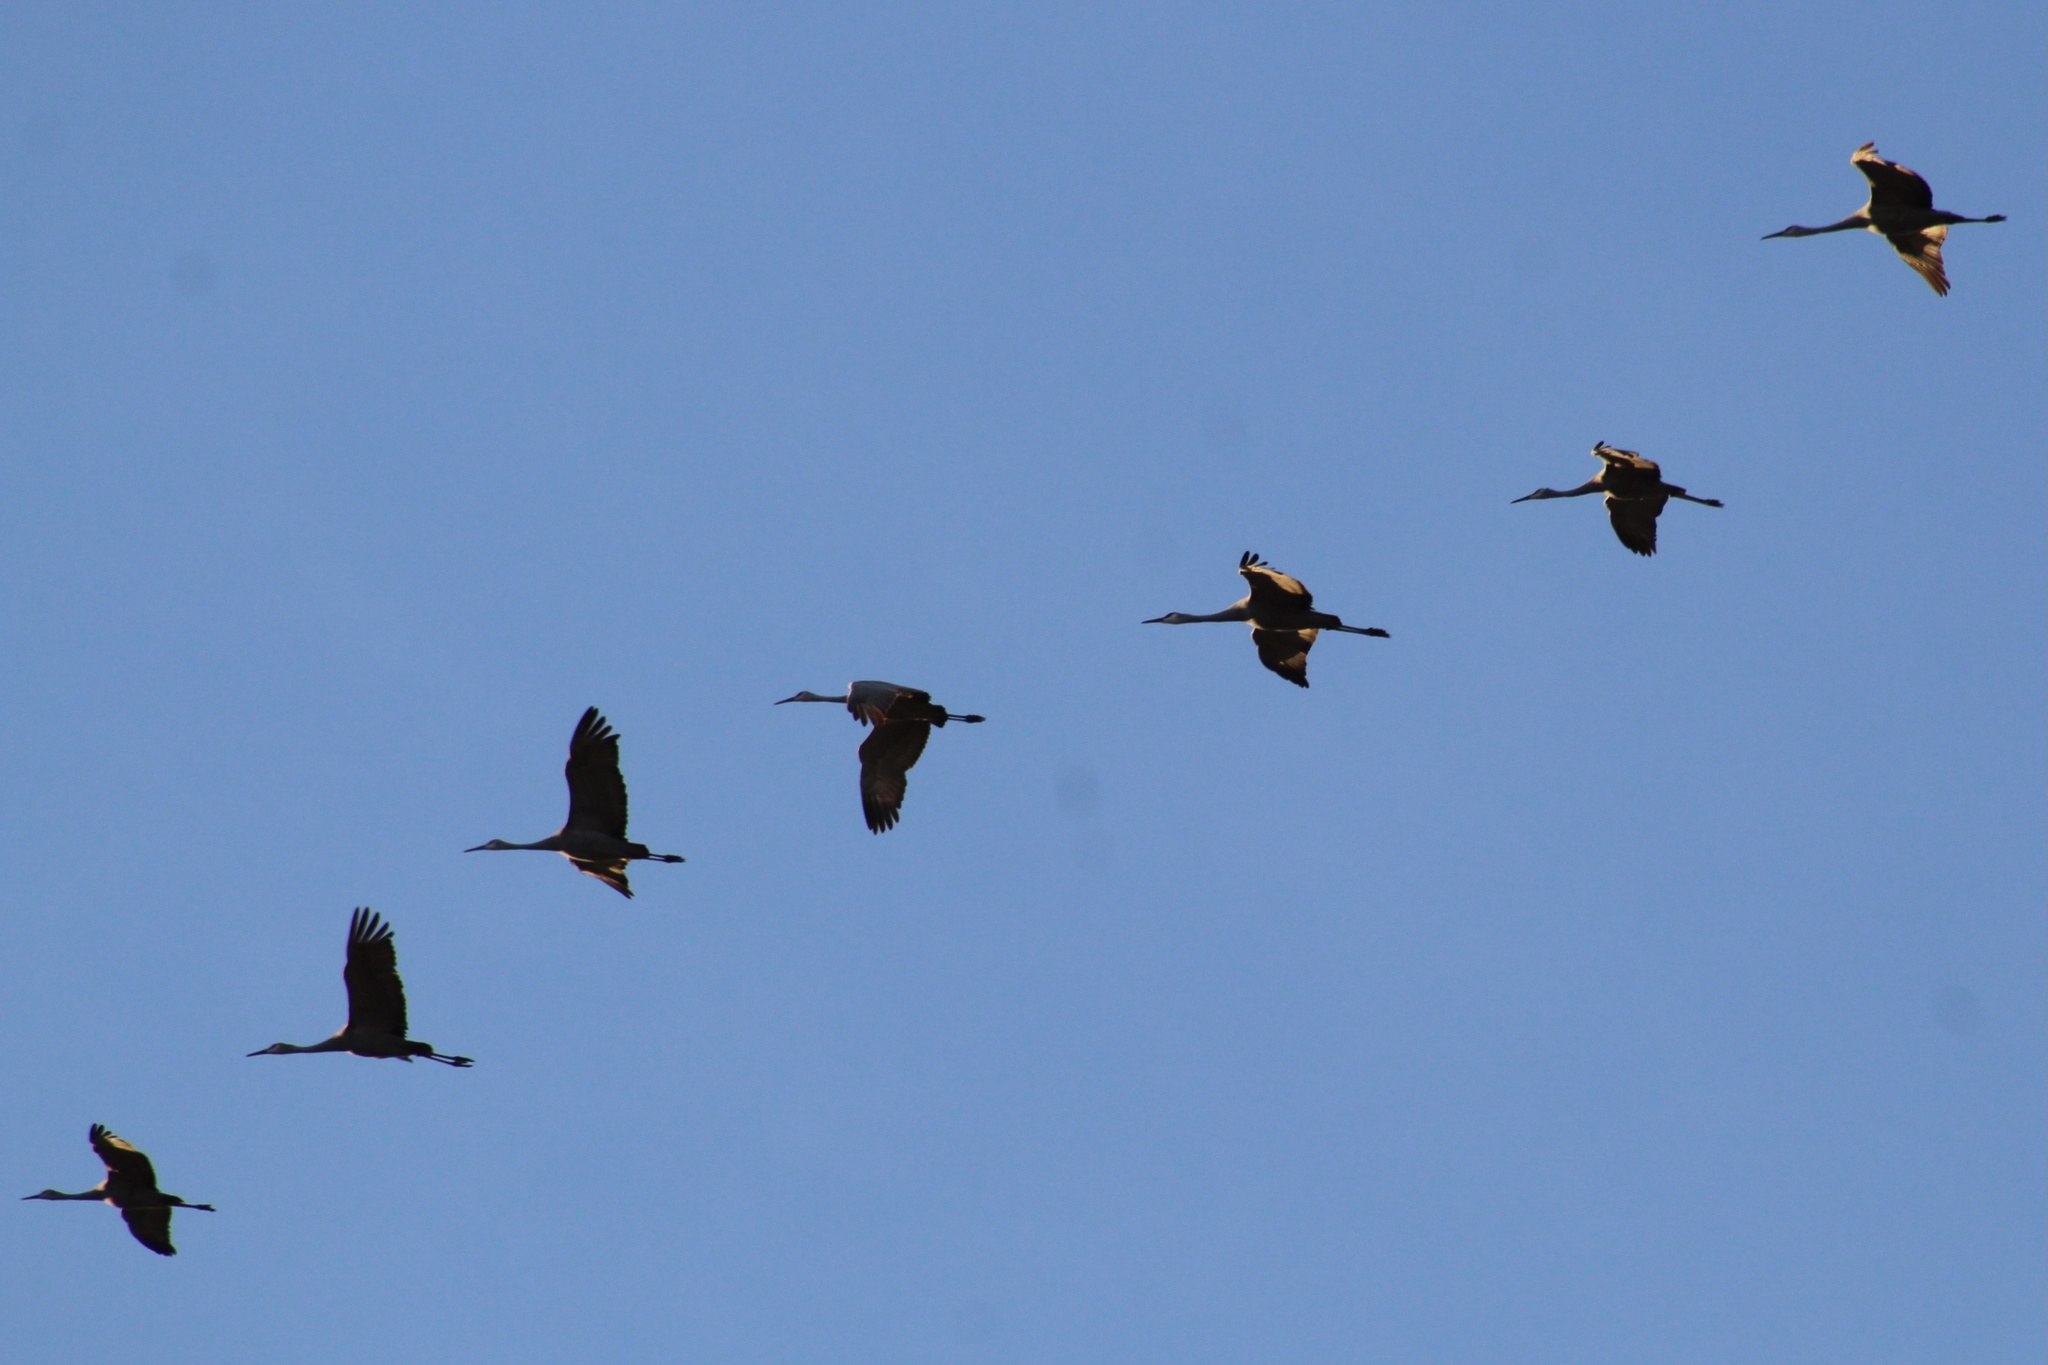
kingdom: Animalia
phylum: Chordata
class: Aves
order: Gruiformes
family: Gruidae
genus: Grus
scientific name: Grus canadensis
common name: Sandhill crane
